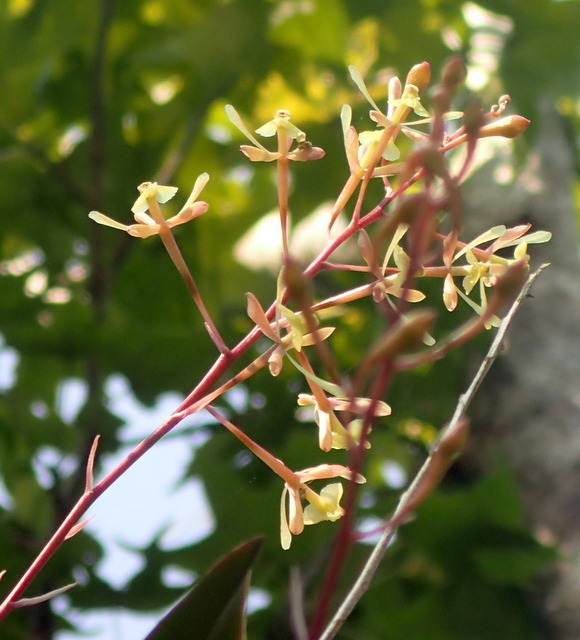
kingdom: Plantae
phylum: Tracheophyta
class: Liliopsida
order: Asparagales
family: Orchidaceae
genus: Epidendrum
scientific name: Epidendrum conopseum
